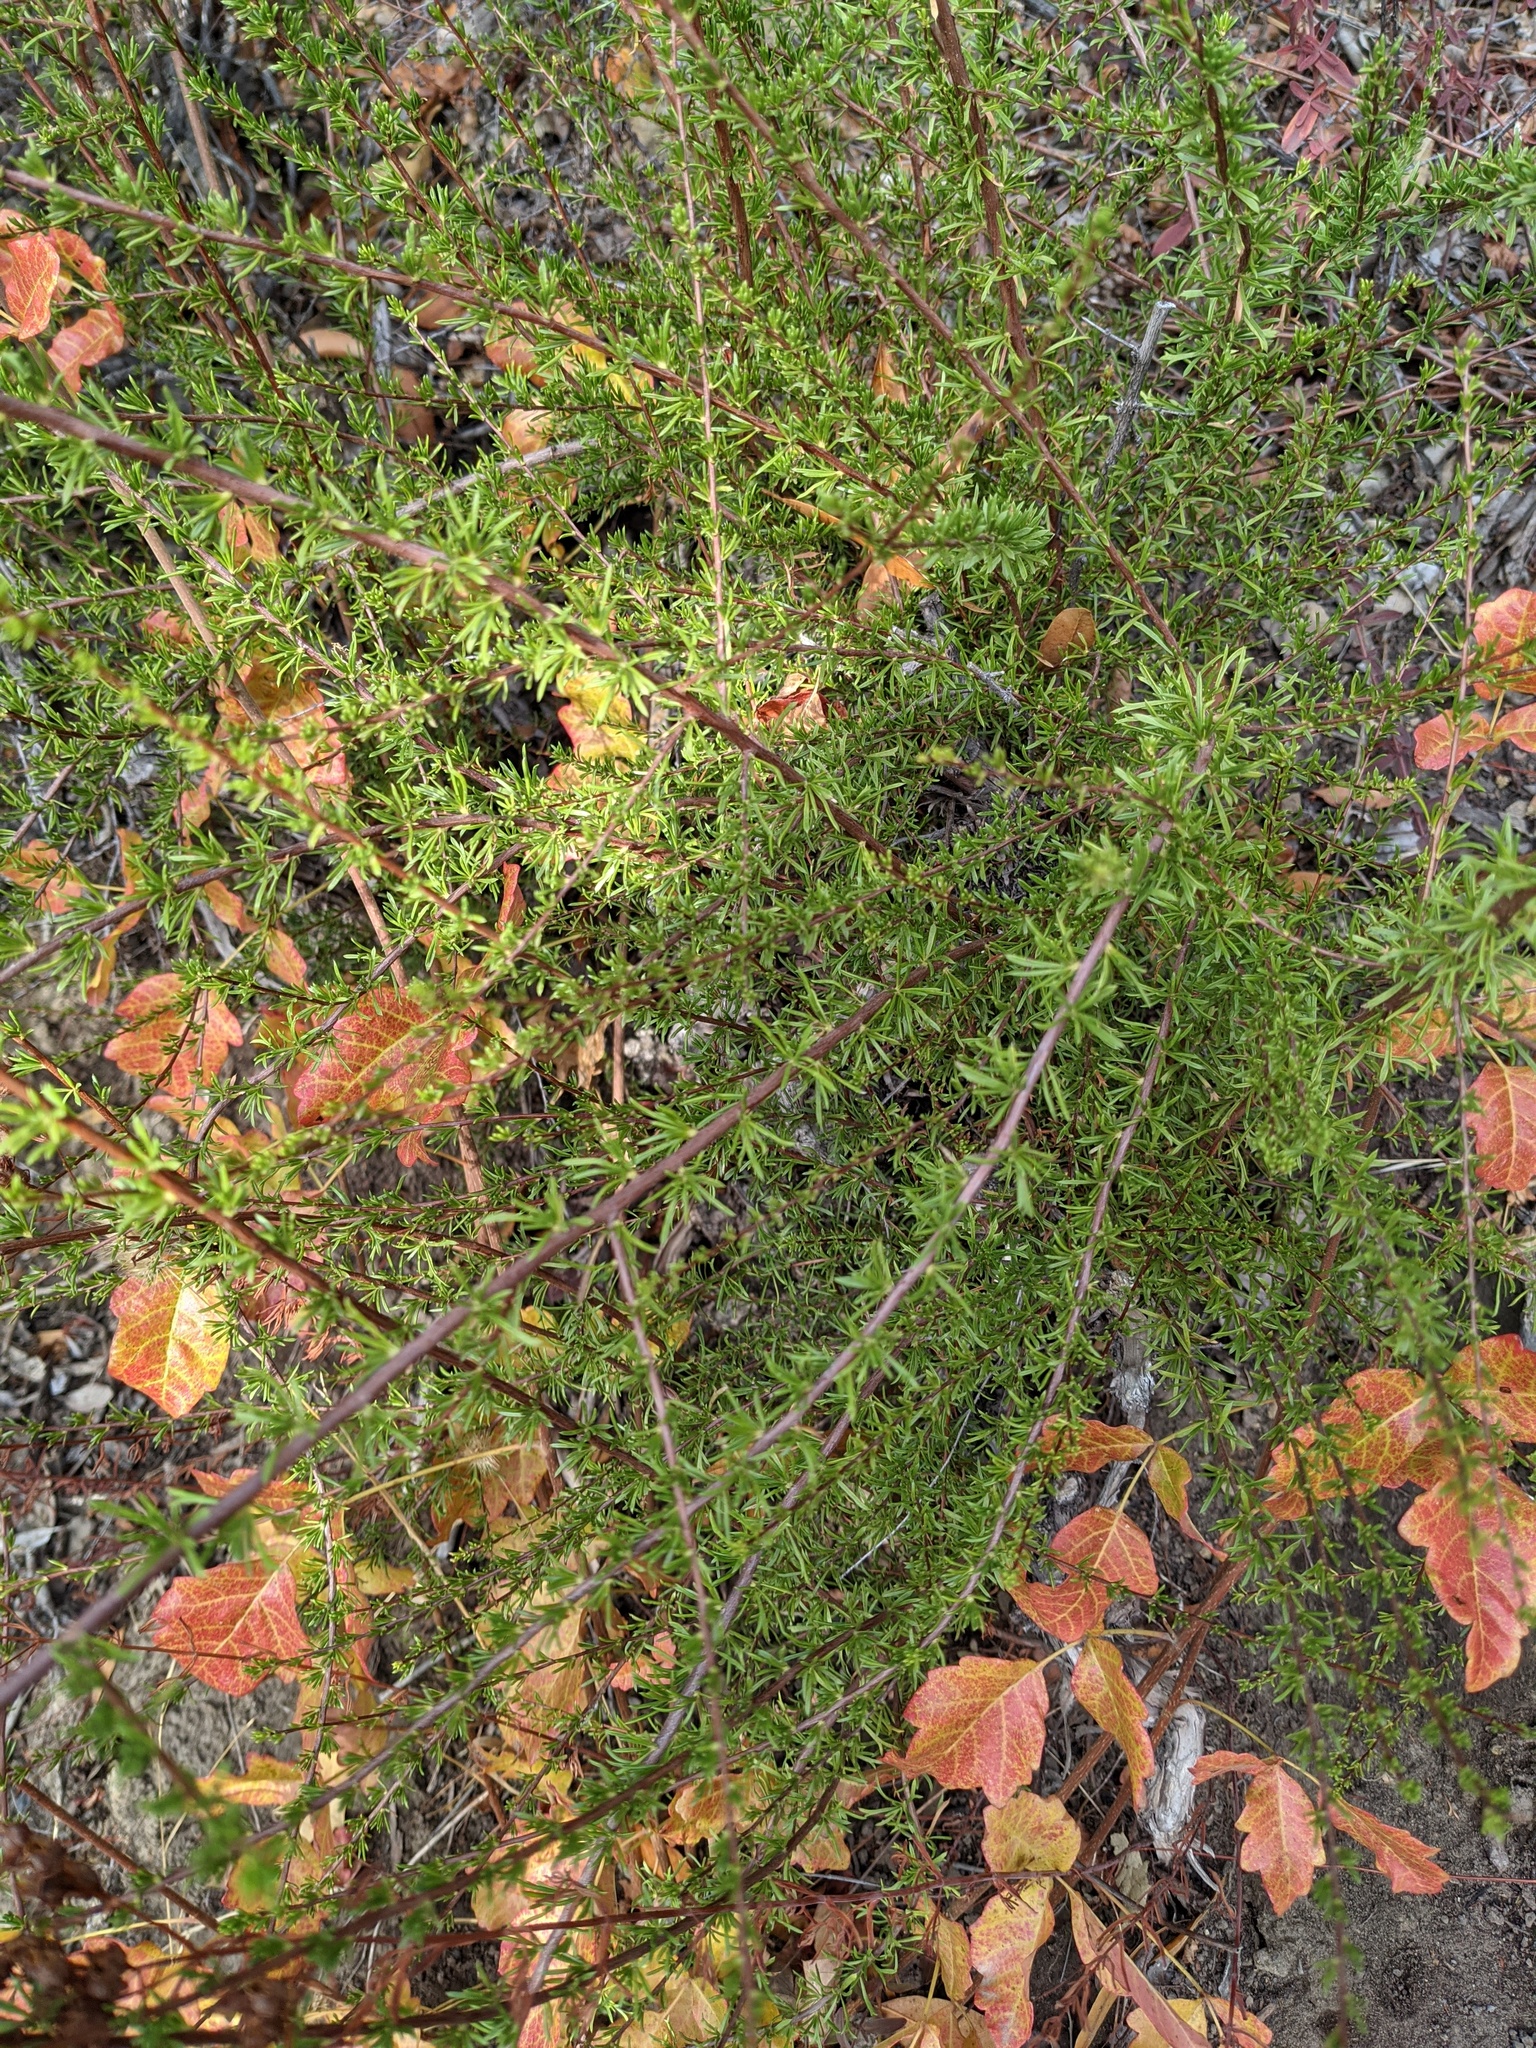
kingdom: Plantae
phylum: Tracheophyta
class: Magnoliopsida
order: Rosales
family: Rosaceae
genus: Adenostoma
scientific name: Adenostoma fasciculatum
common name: Chamise
